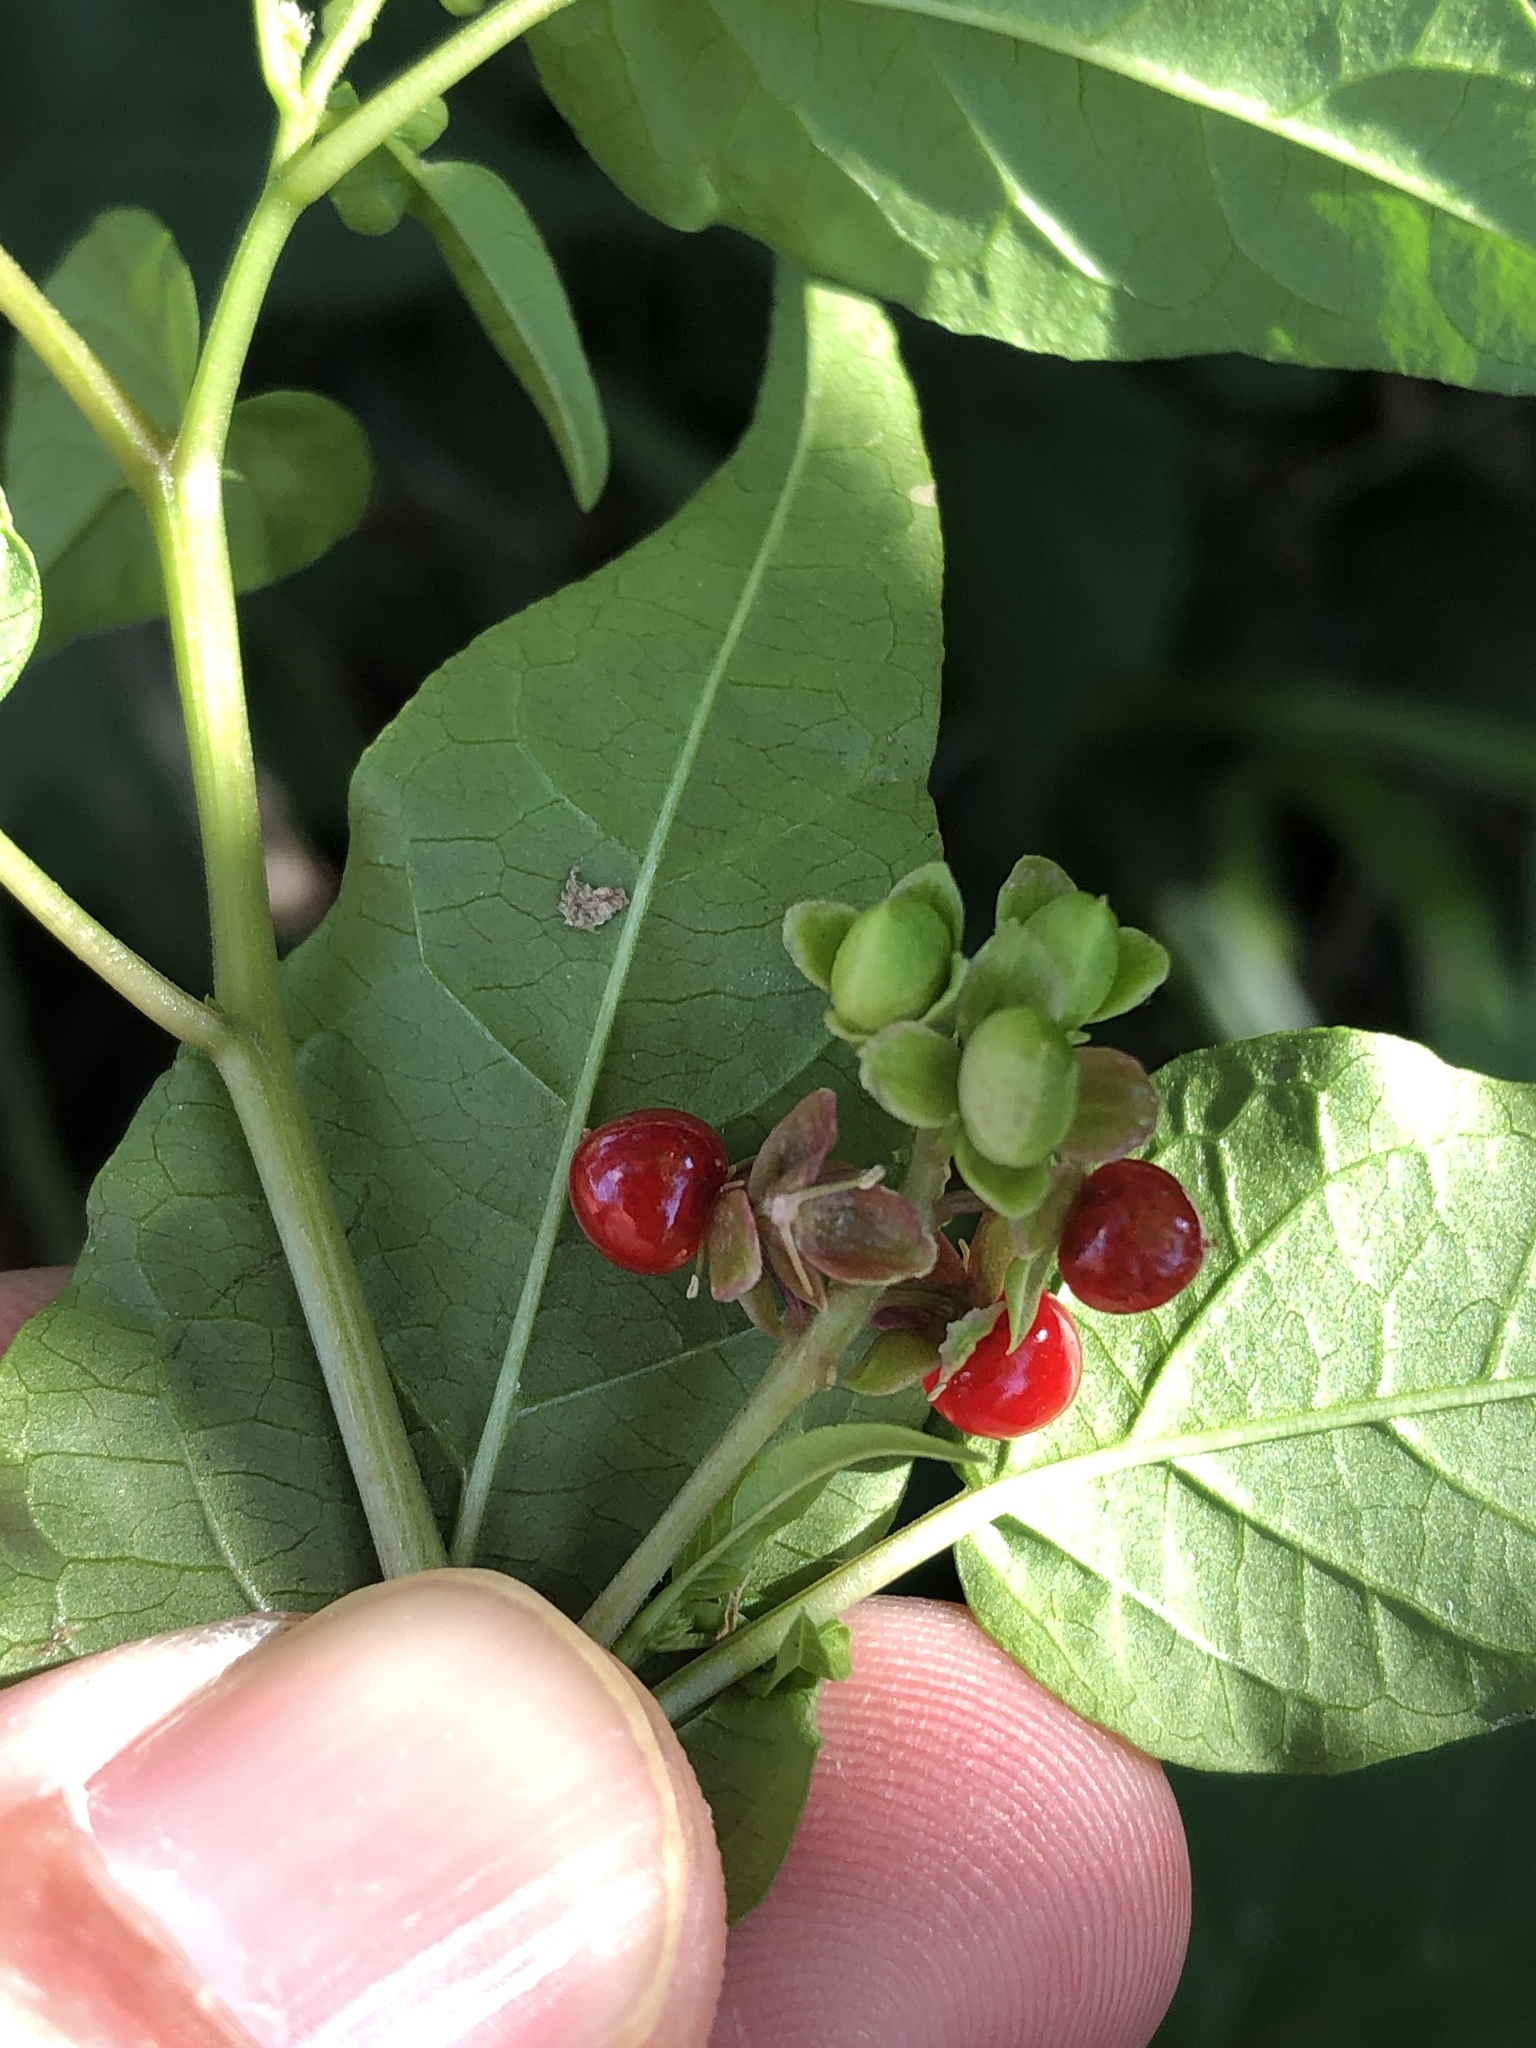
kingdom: Plantae
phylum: Tracheophyta
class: Magnoliopsida
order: Caryophyllales
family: Phytolaccaceae
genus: Rivina
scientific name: Rivina humilis
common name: Rougeplant
